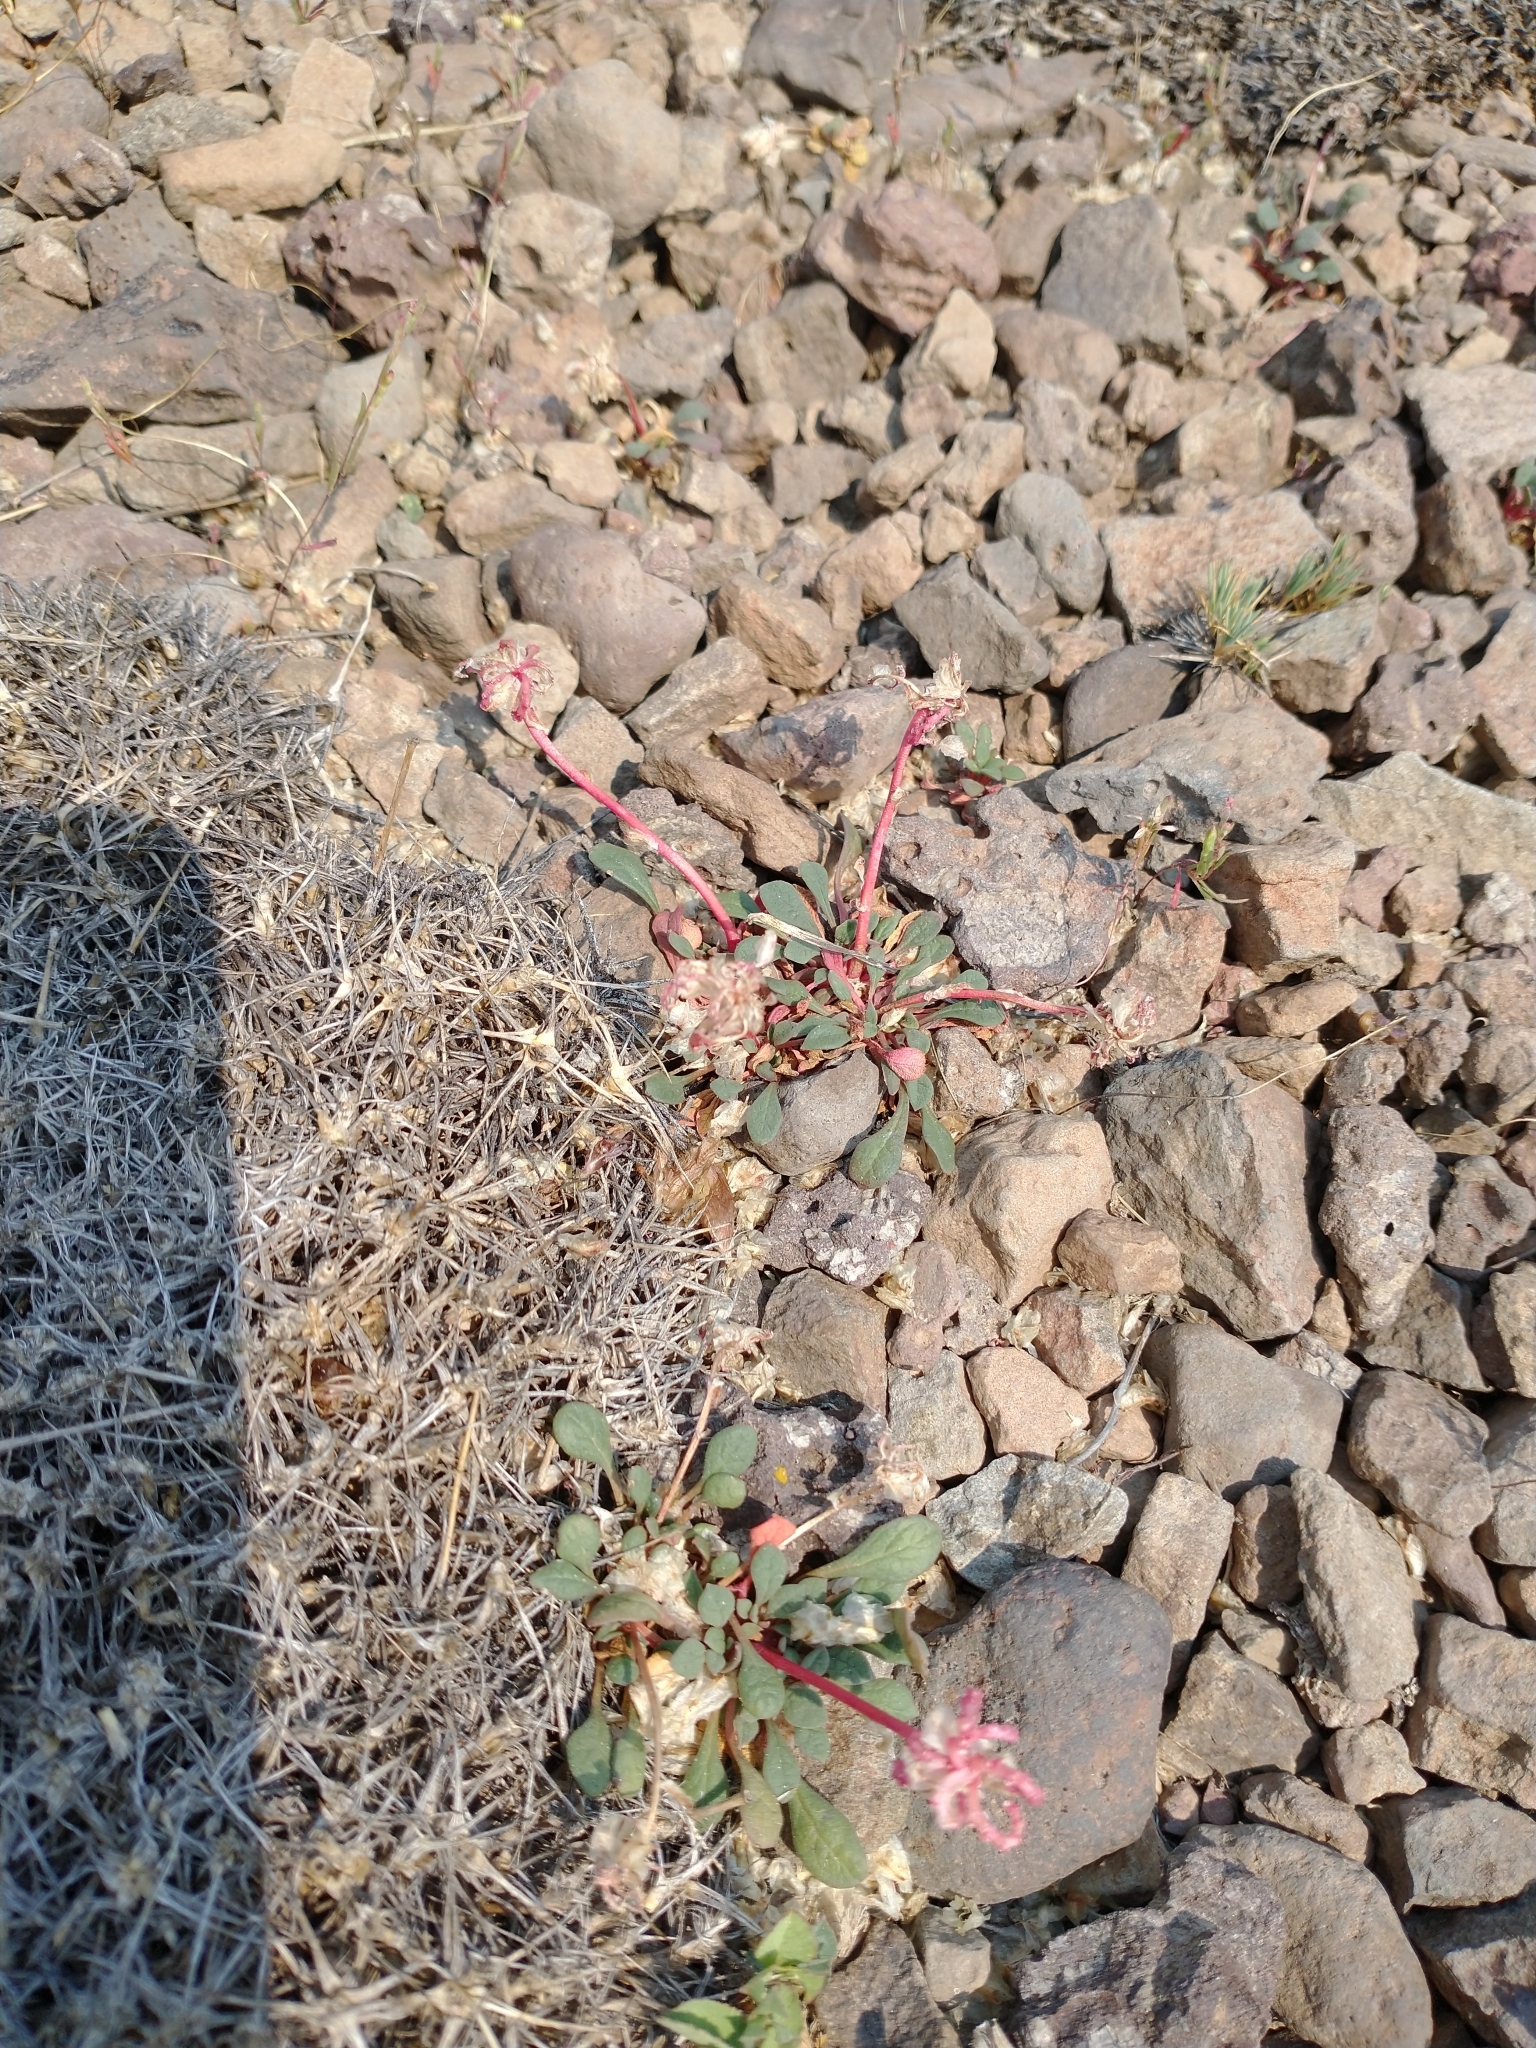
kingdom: Plantae
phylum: Tracheophyta
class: Magnoliopsida
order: Caryophyllales
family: Montiaceae
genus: Calyptridium
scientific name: Calyptridium monospermum
